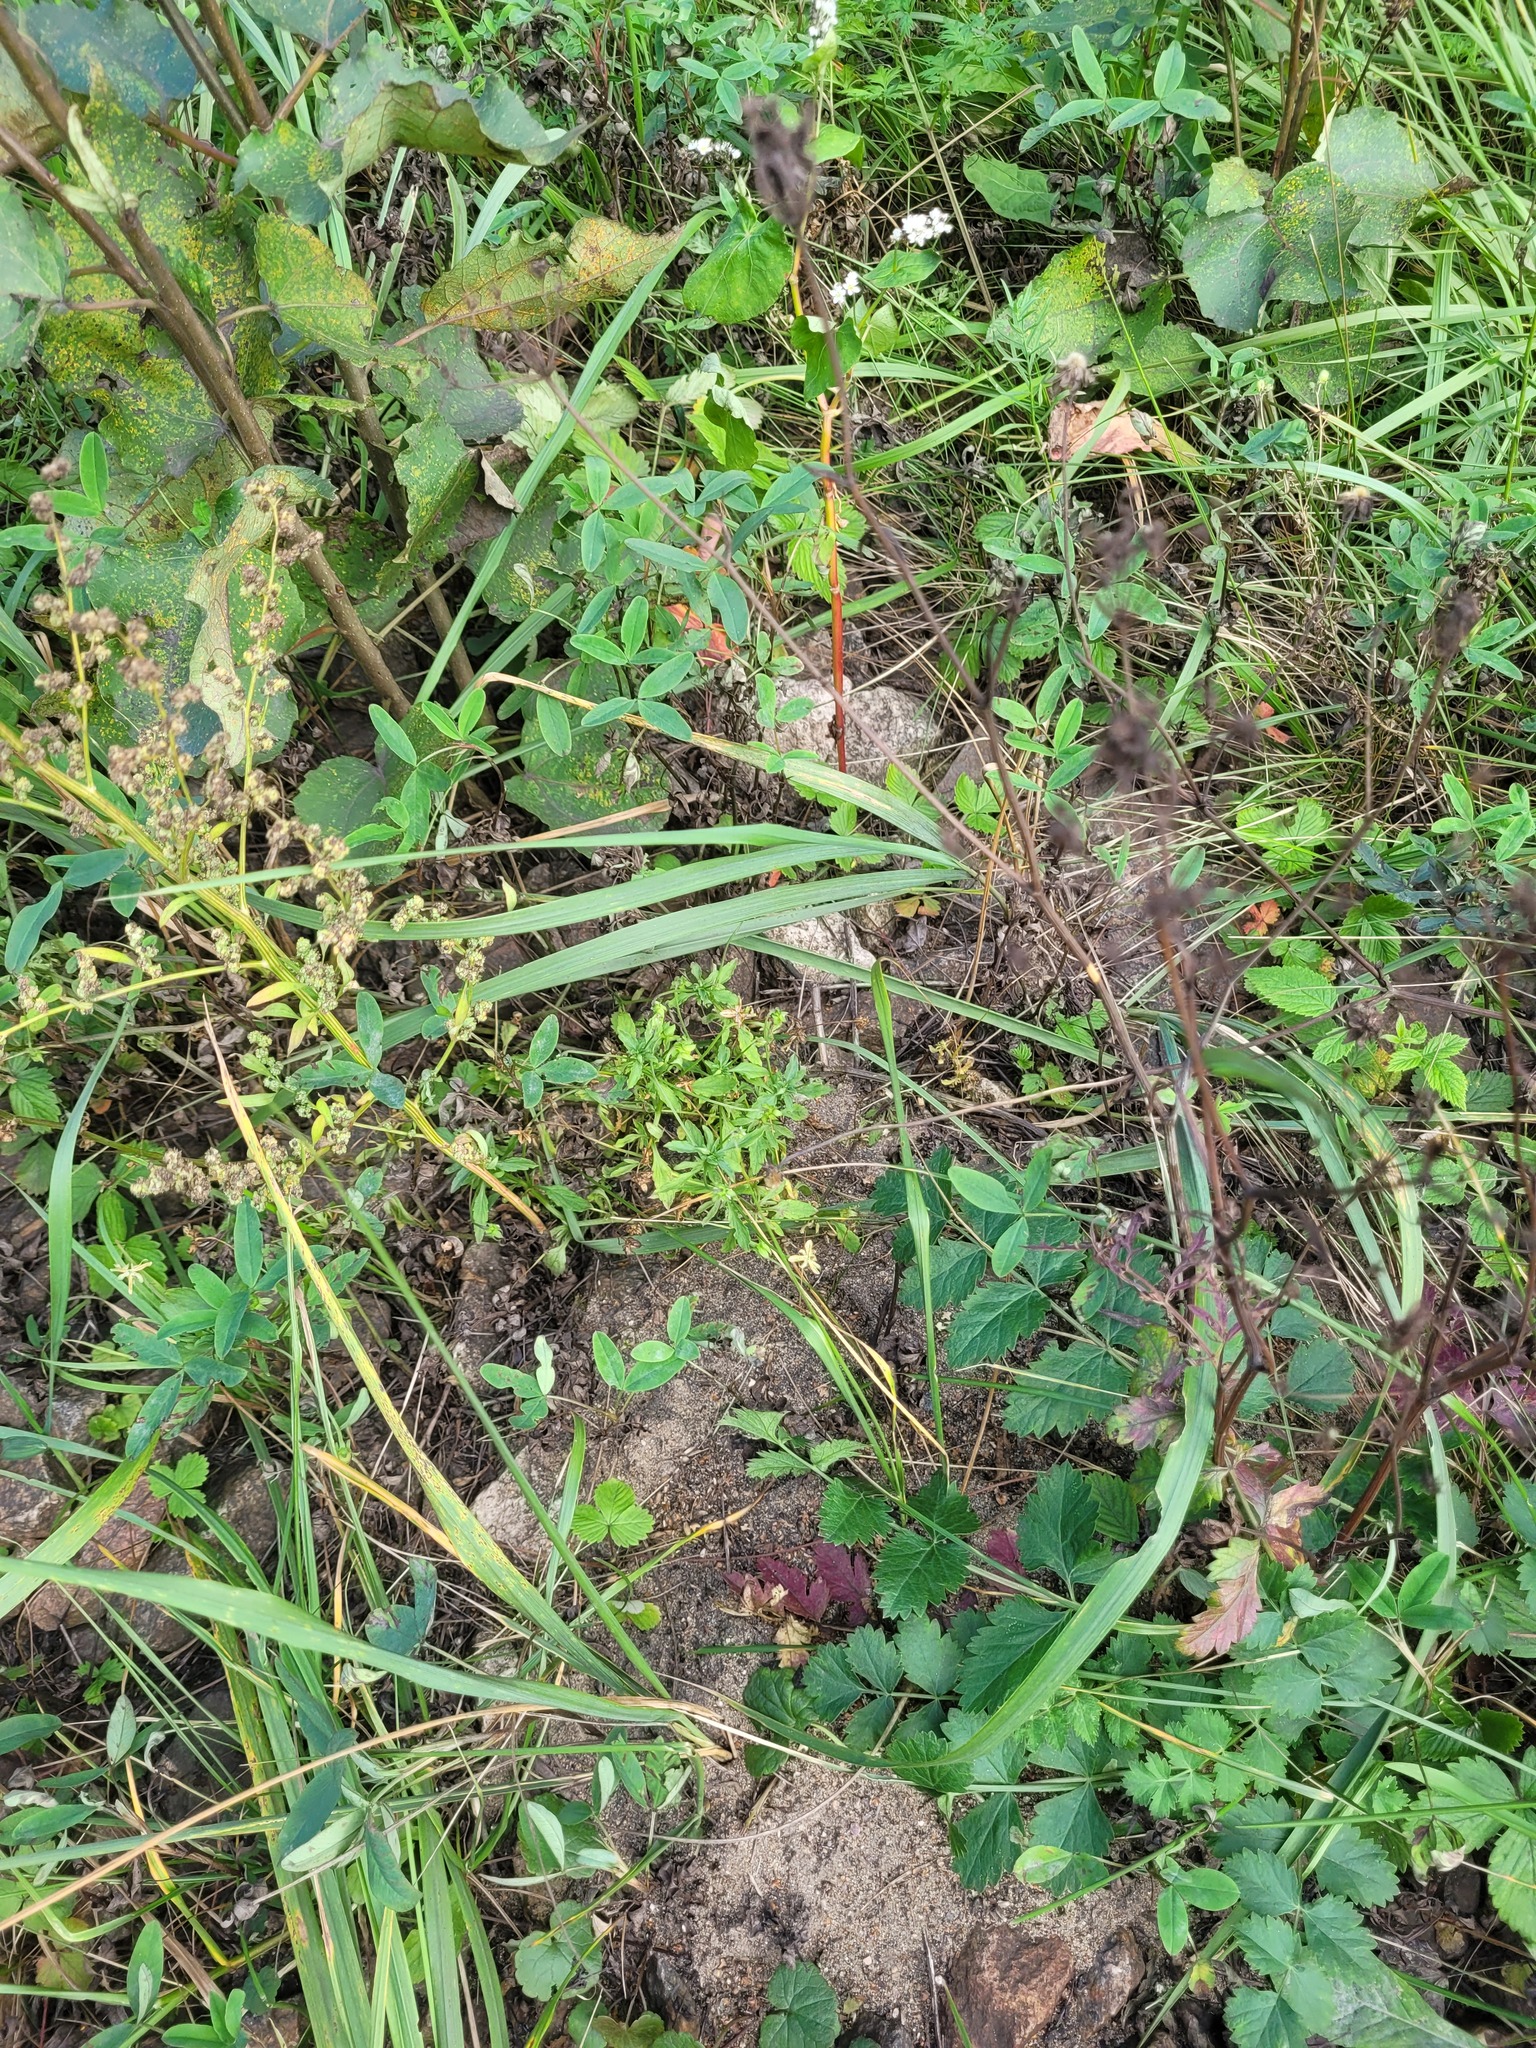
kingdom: Plantae
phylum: Tracheophyta
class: Magnoliopsida
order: Malpighiales
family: Violaceae
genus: Viola
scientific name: Viola arvensis
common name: Field pansy
